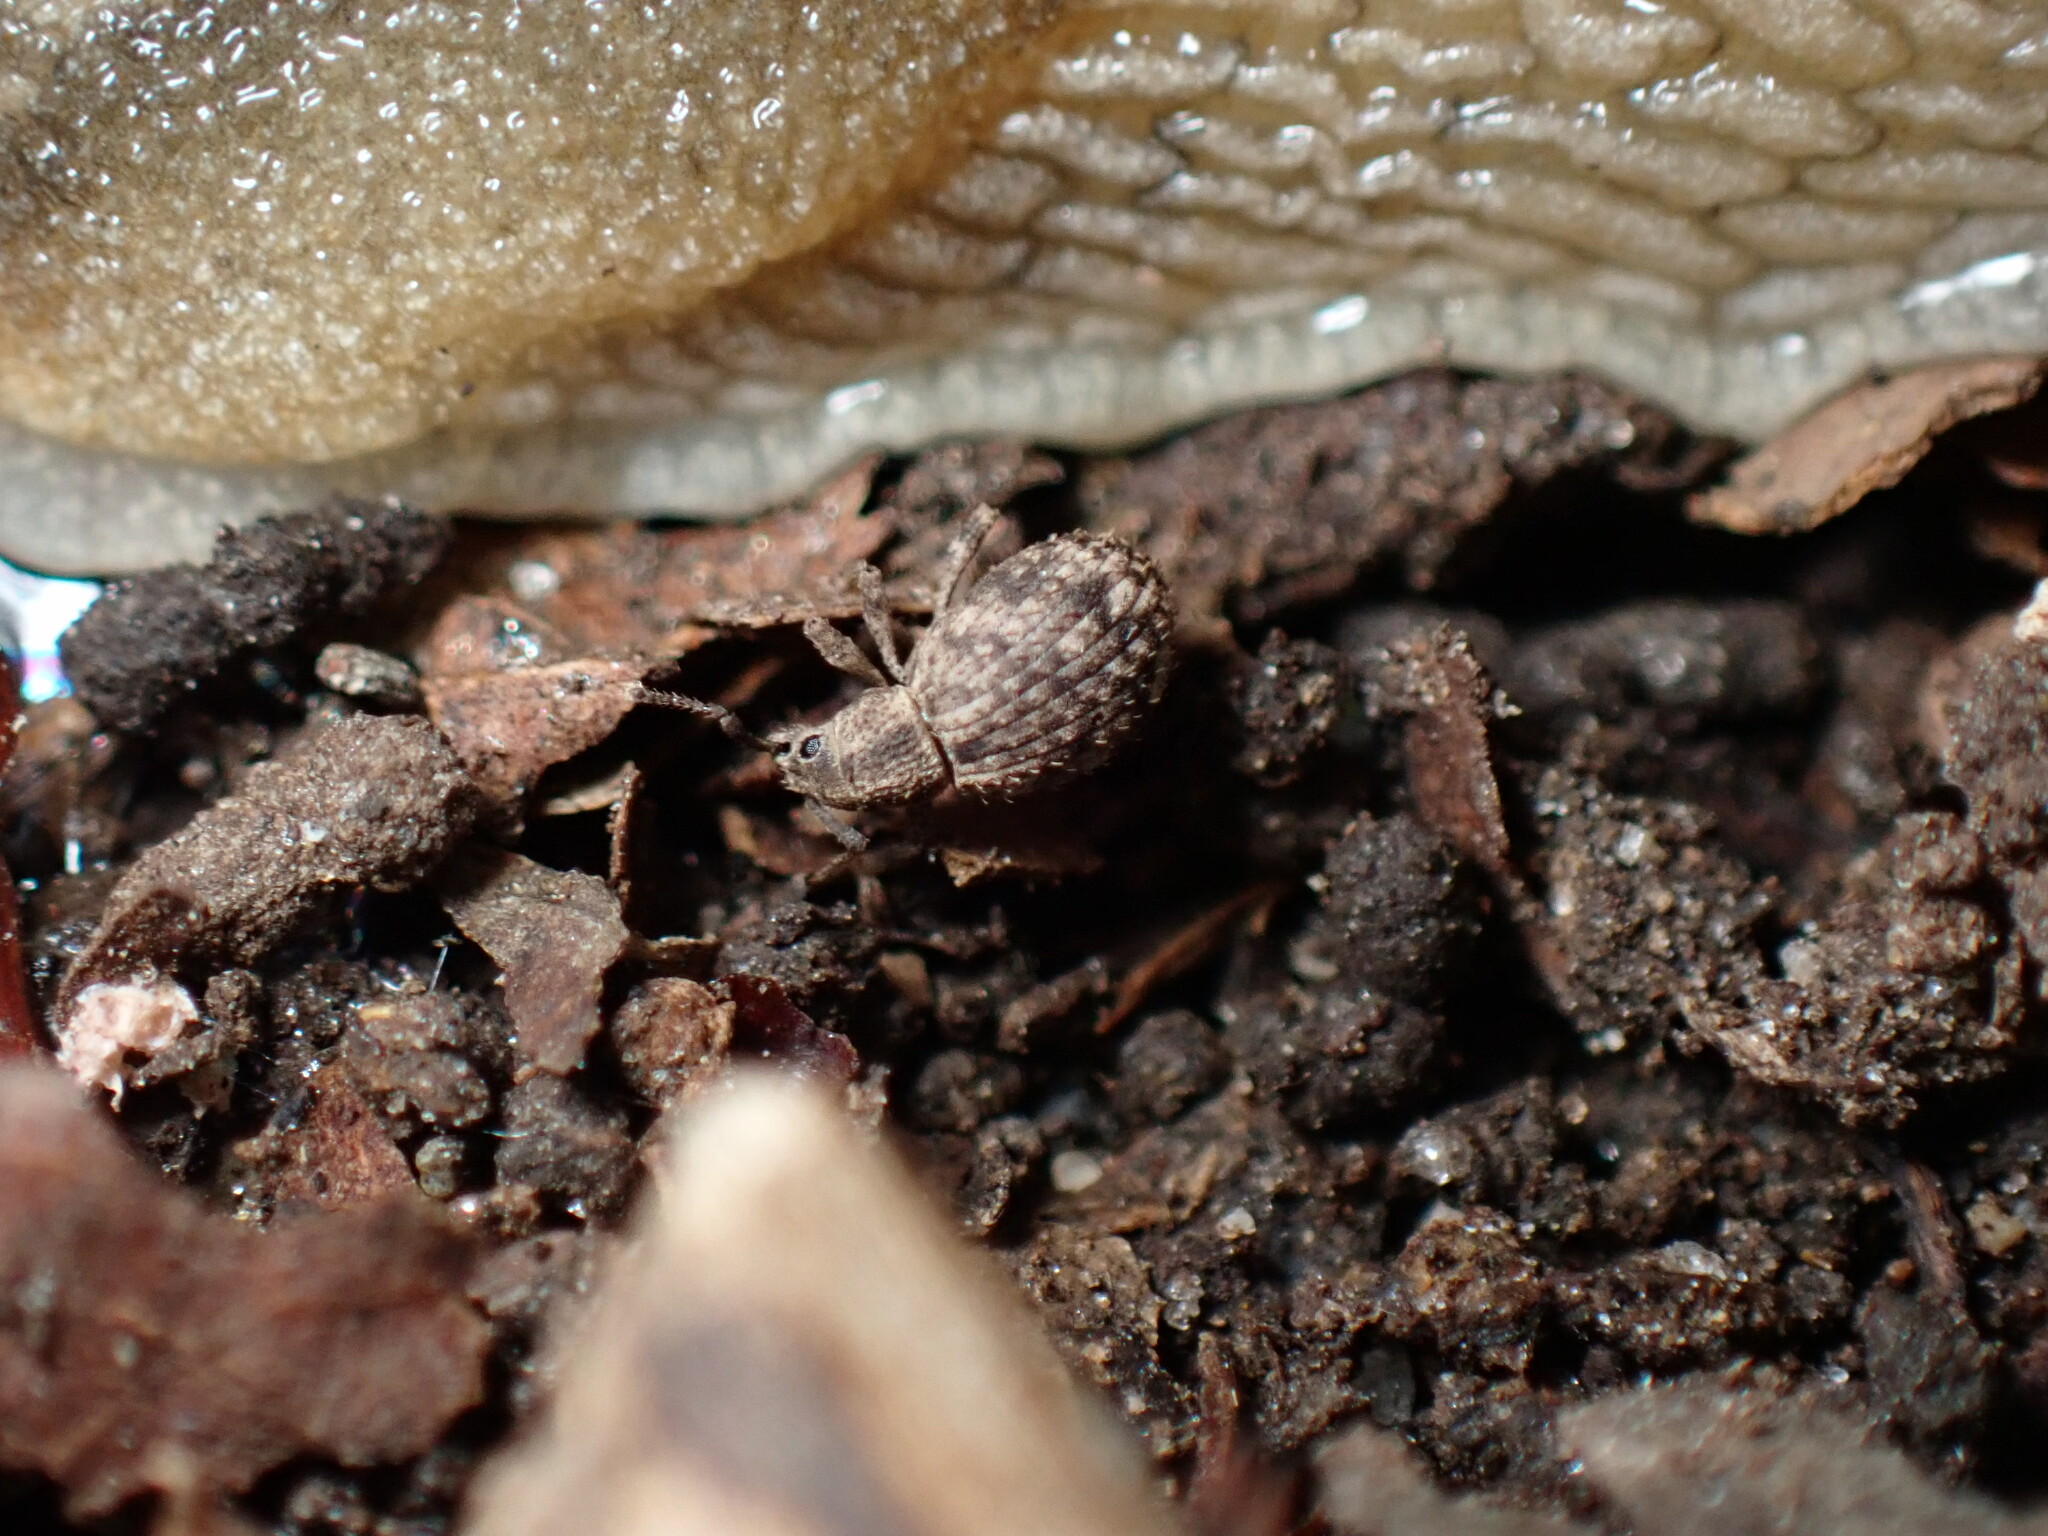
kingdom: Animalia
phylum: Arthropoda
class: Insecta
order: Coleoptera
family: Curculionidae
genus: Myosides
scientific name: Myosides seriehispidus
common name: Broadnosed weevil
